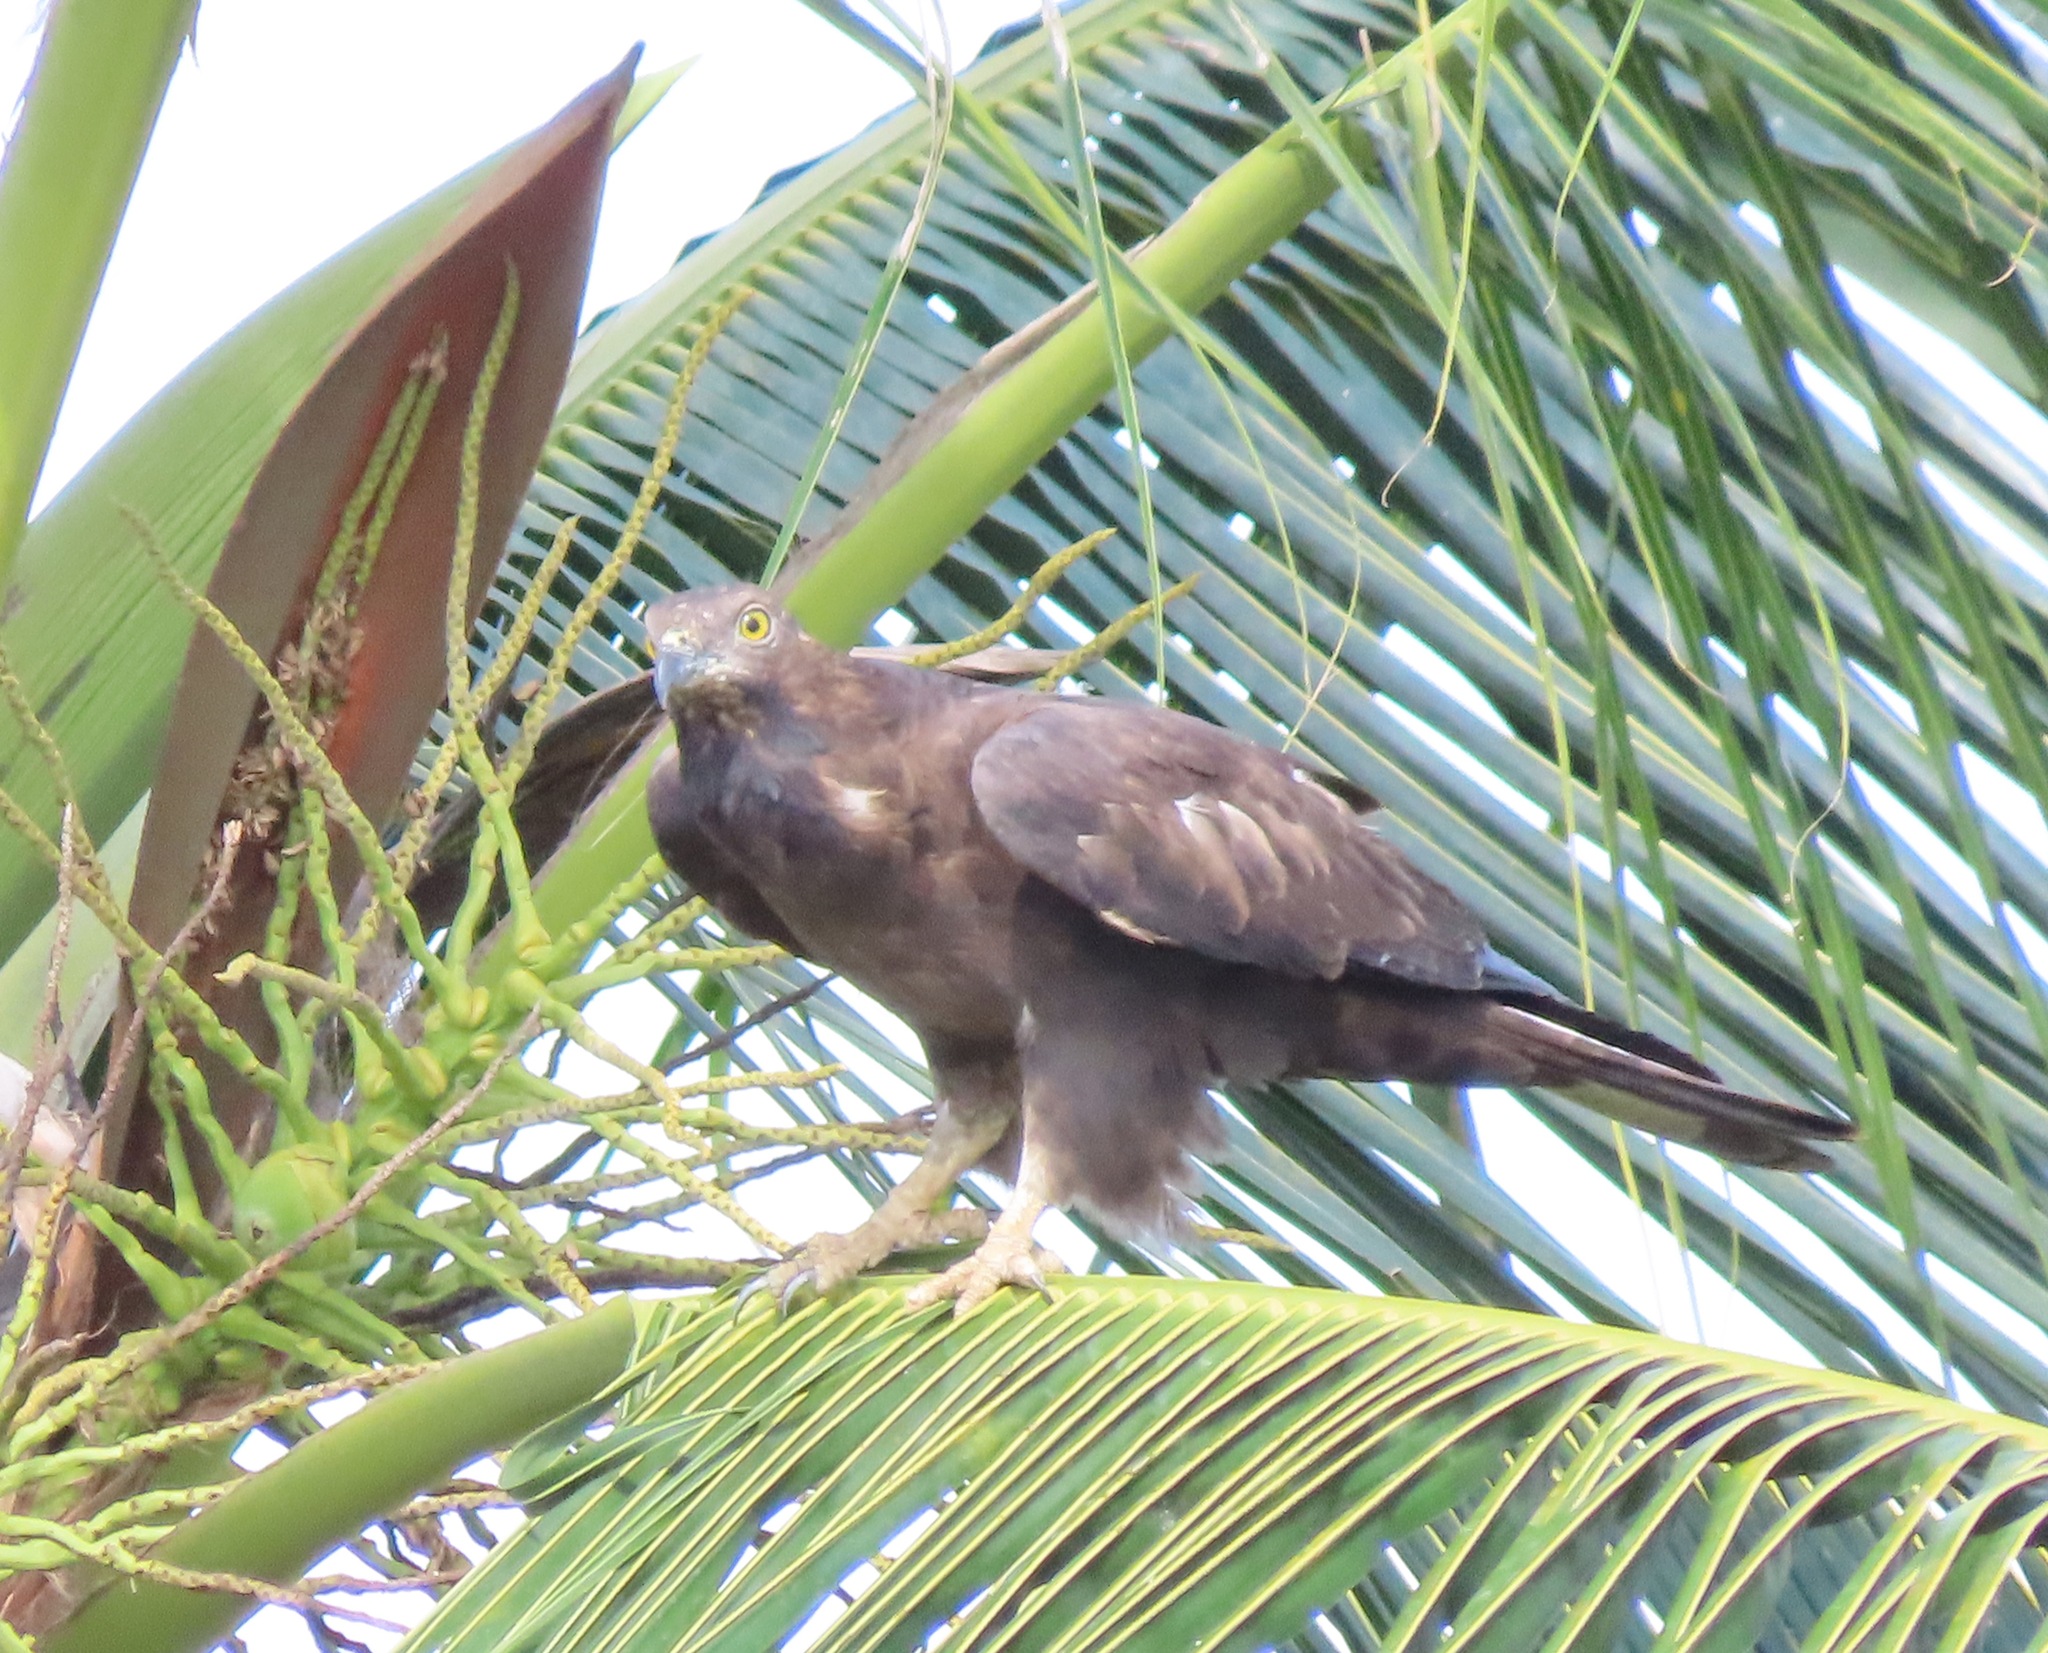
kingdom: Animalia
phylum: Chordata
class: Aves
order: Accipitriformes
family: Accipitridae
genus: Pernis
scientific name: Pernis ptilorhynchus
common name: Crested honey buzzard
